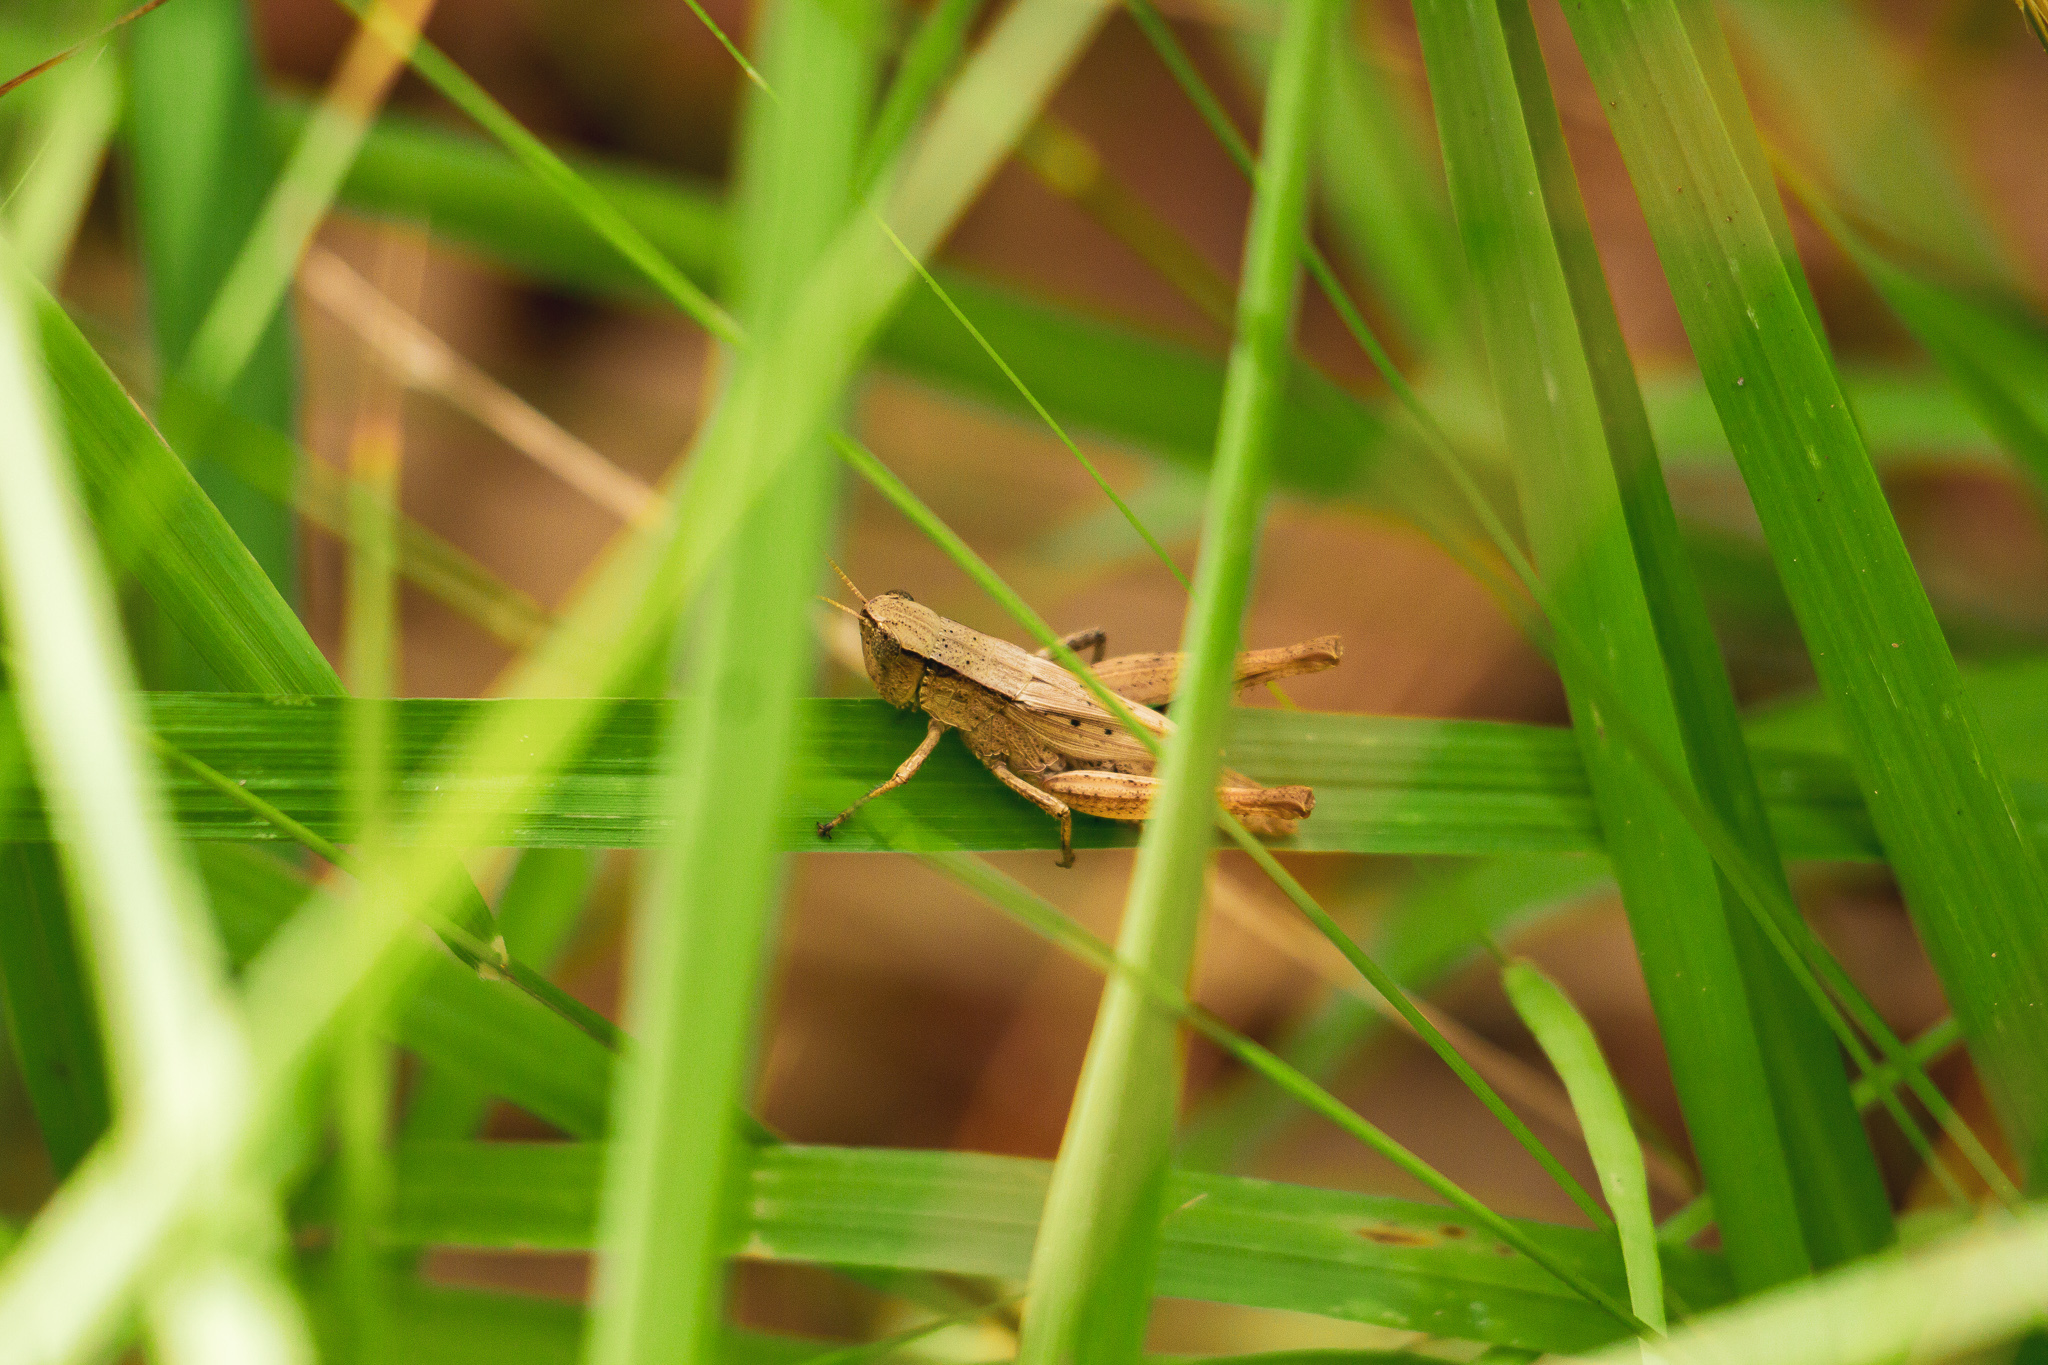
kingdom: Animalia
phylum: Arthropoda
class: Insecta
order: Orthoptera
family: Acrididae
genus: Dichromorpha
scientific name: Dichromorpha viridis
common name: Short-winged green grasshopper
